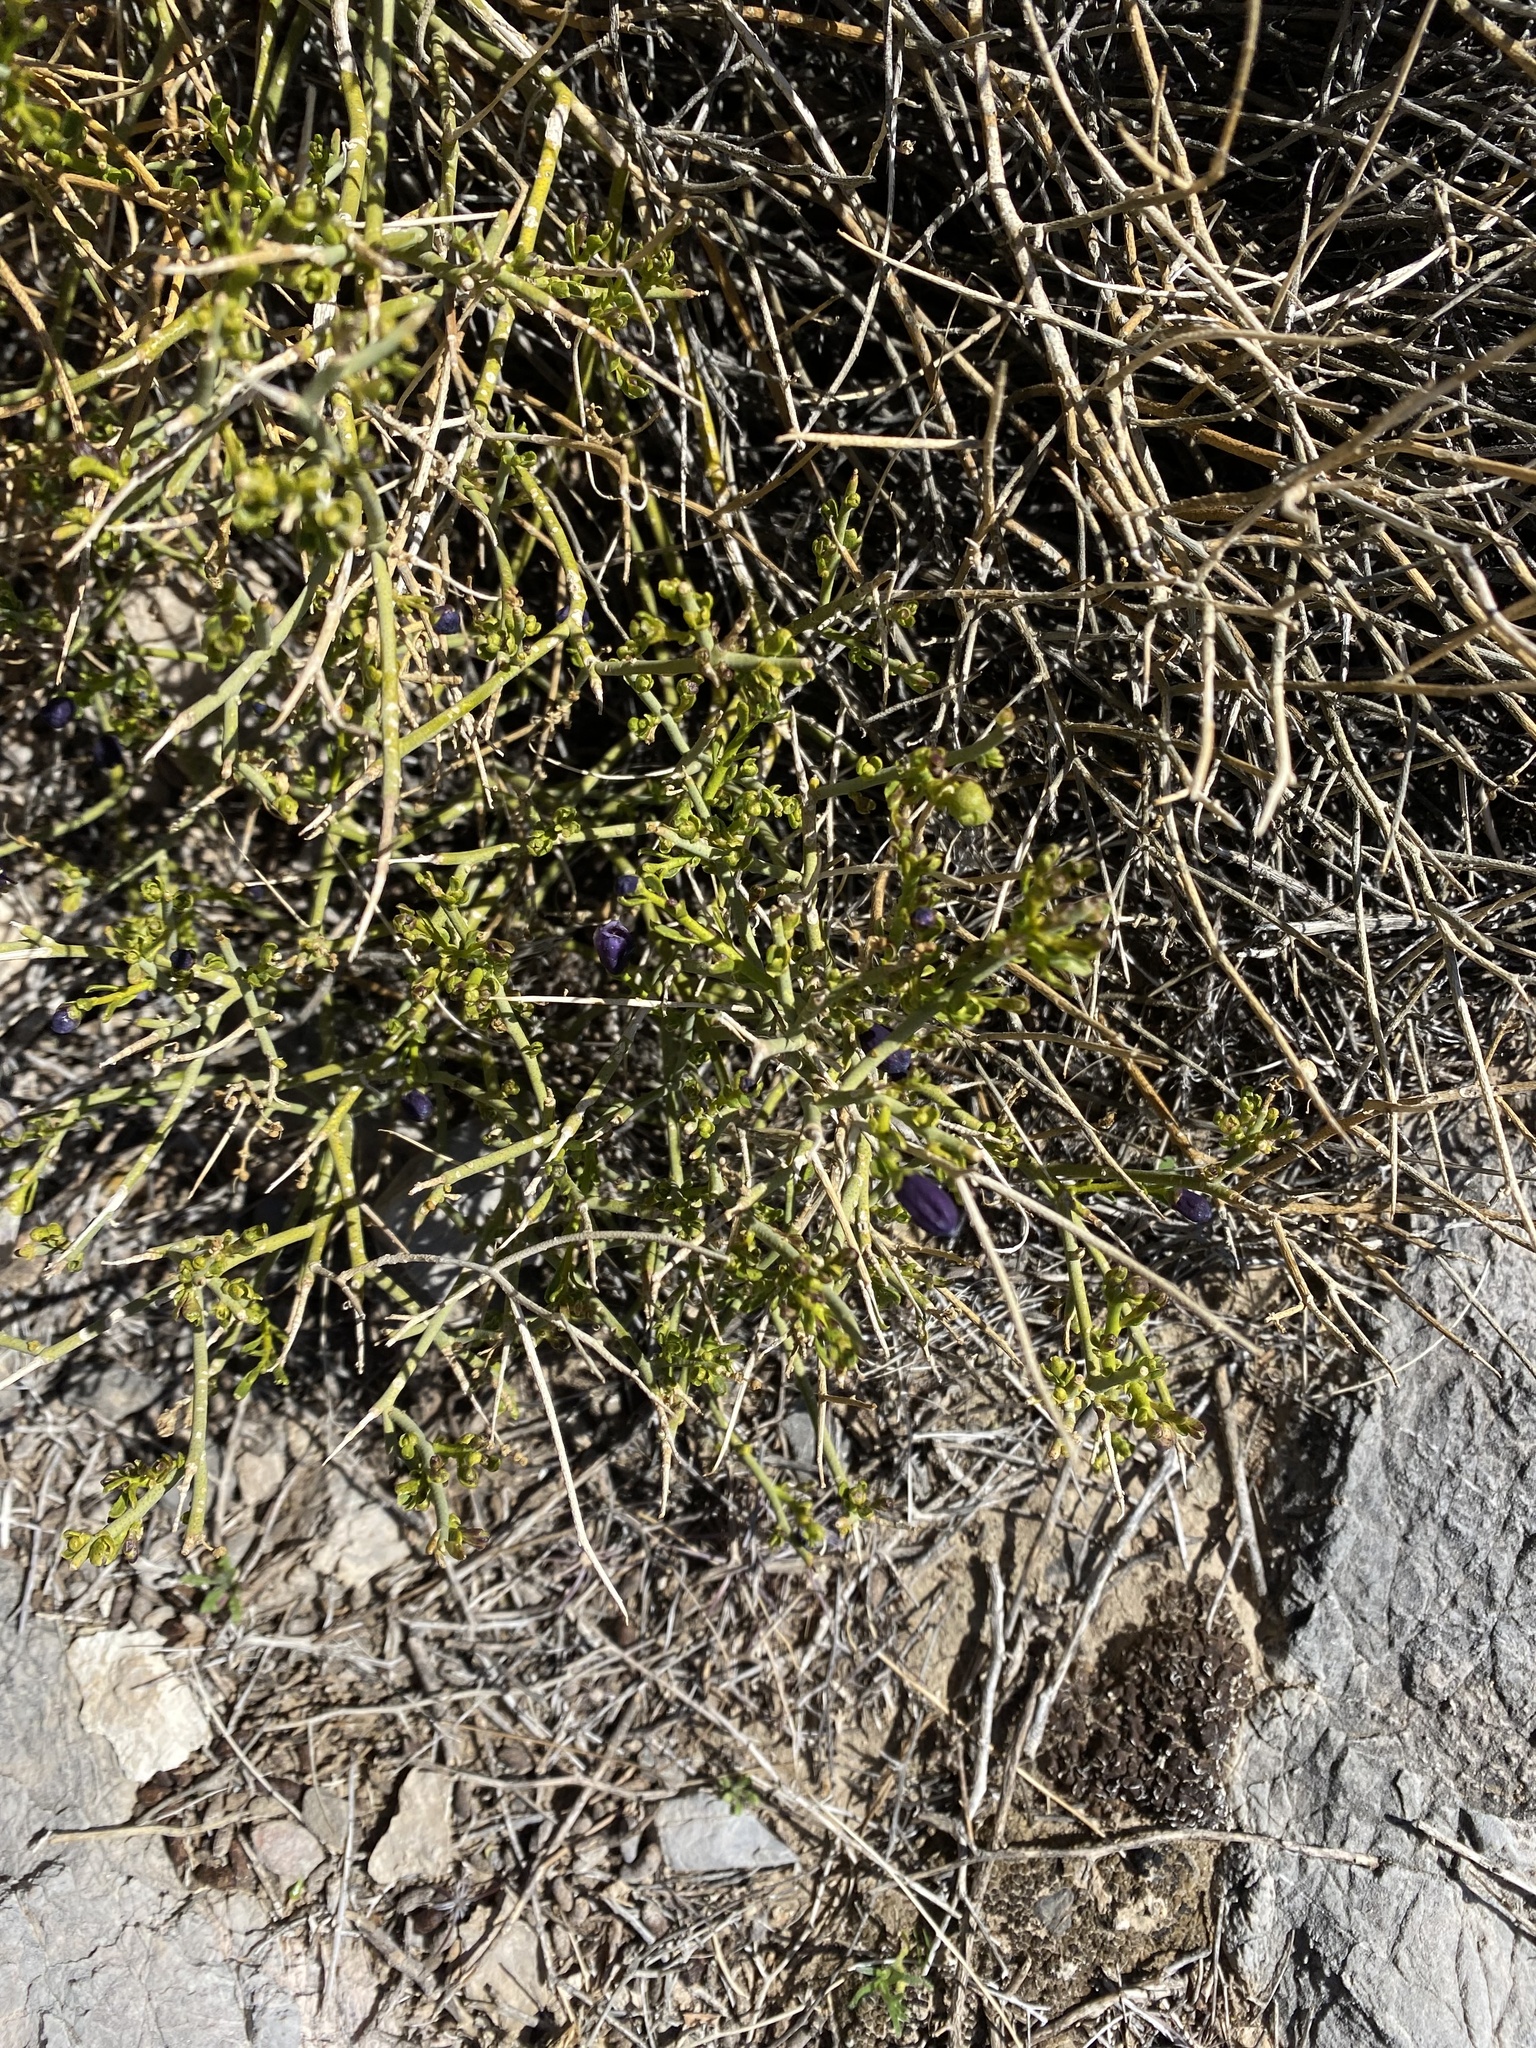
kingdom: Plantae
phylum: Tracheophyta
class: Magnoliopsida
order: Sapindales
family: Rutaceae
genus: Thamnosma
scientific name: Thamnosma montana
